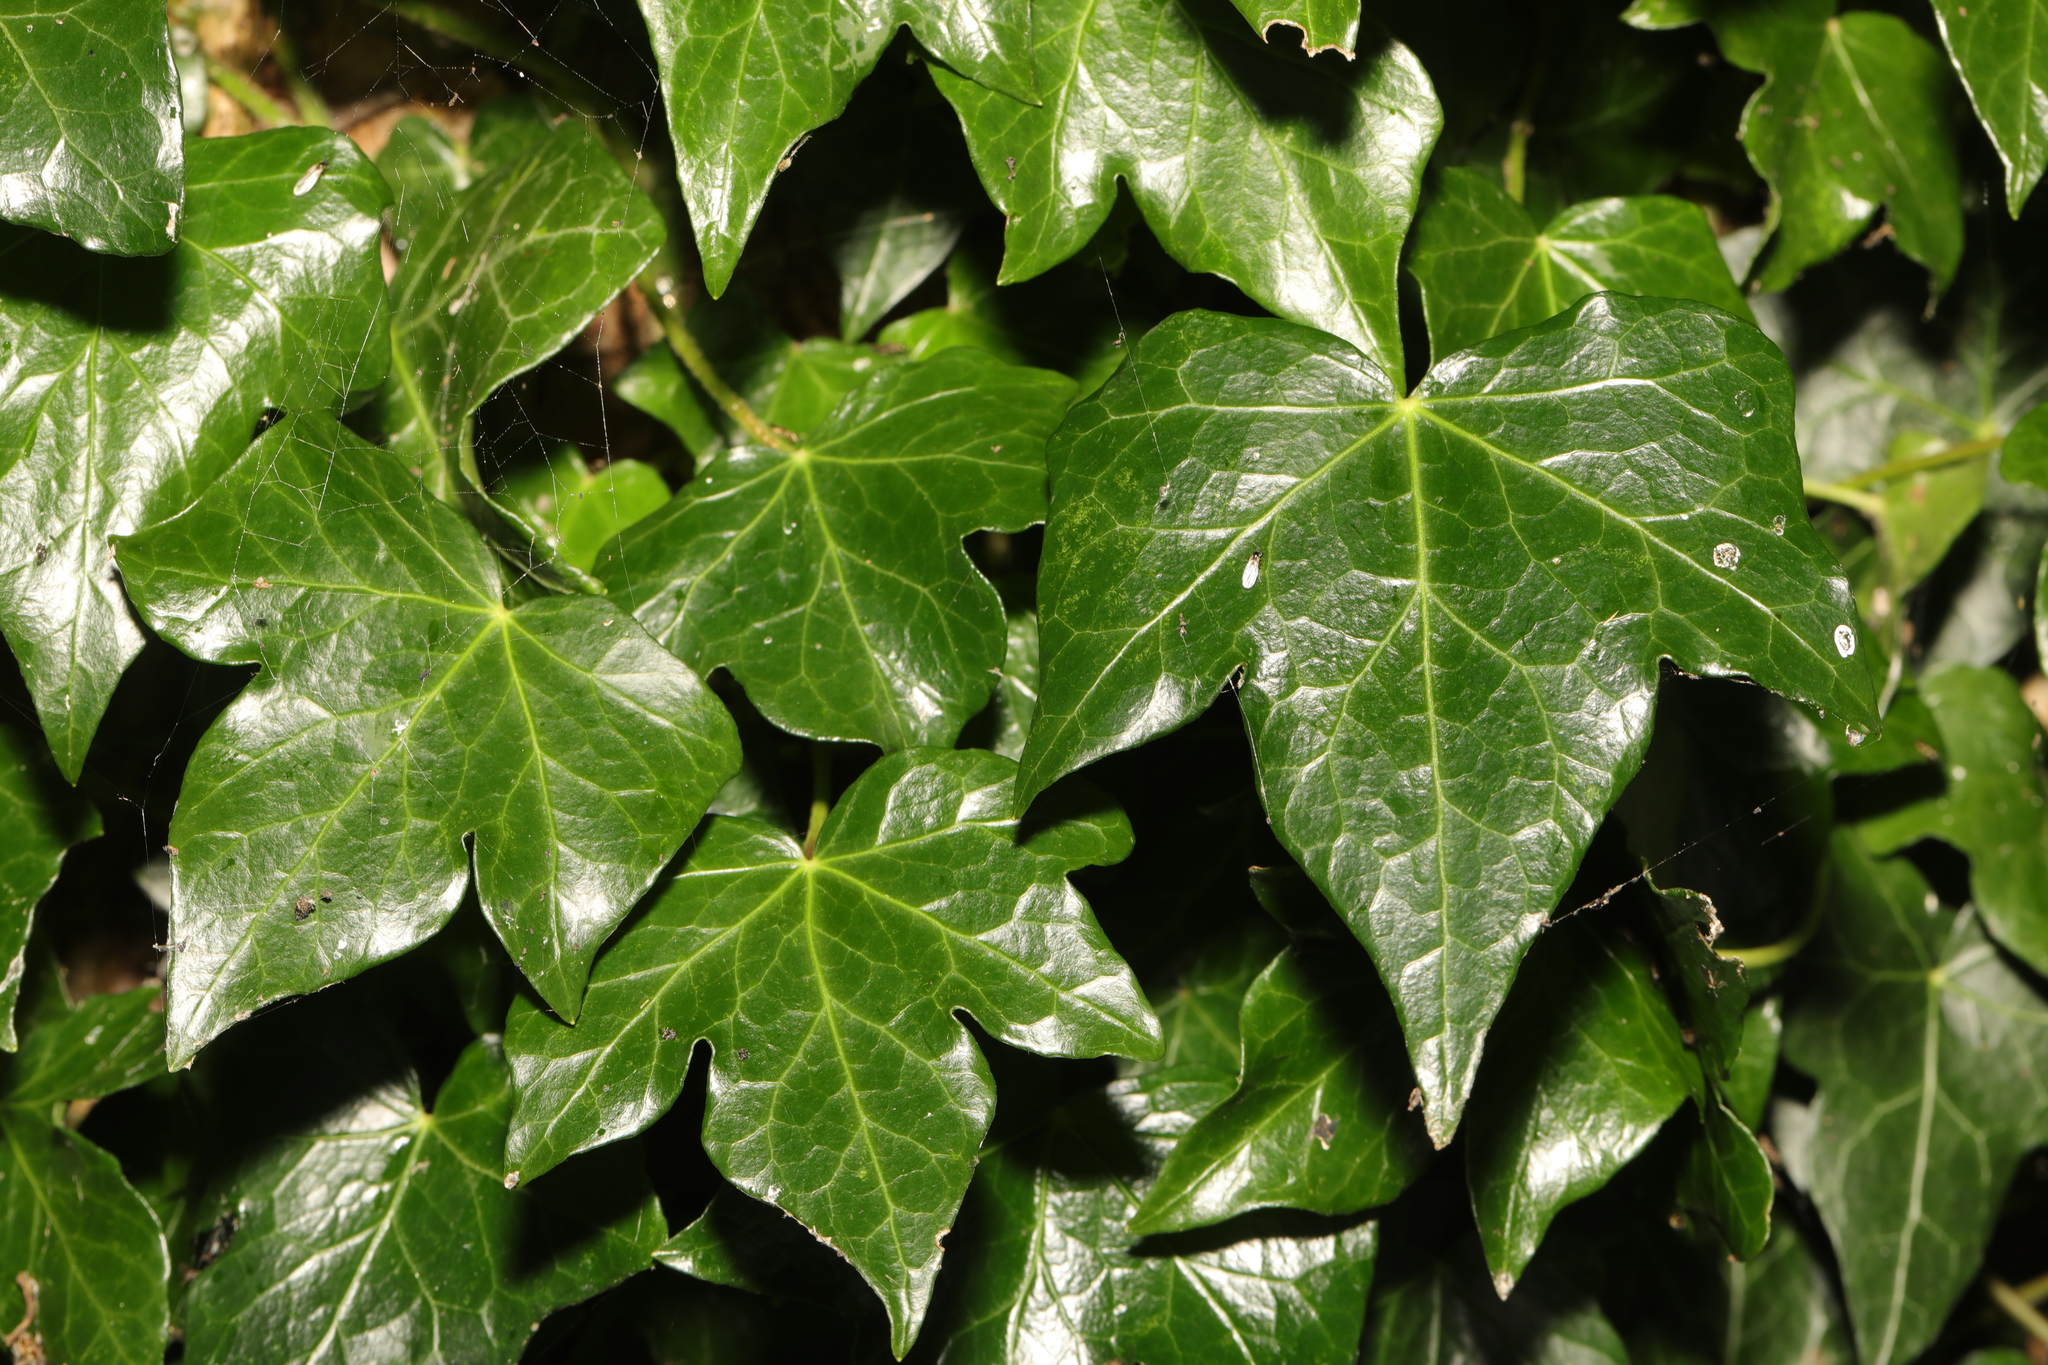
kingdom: Plantae
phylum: Tracheophyta
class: Magnoliopsida
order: Apiales
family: Araliaceae
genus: Hedera
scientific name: Hedera helix
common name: Ivy
